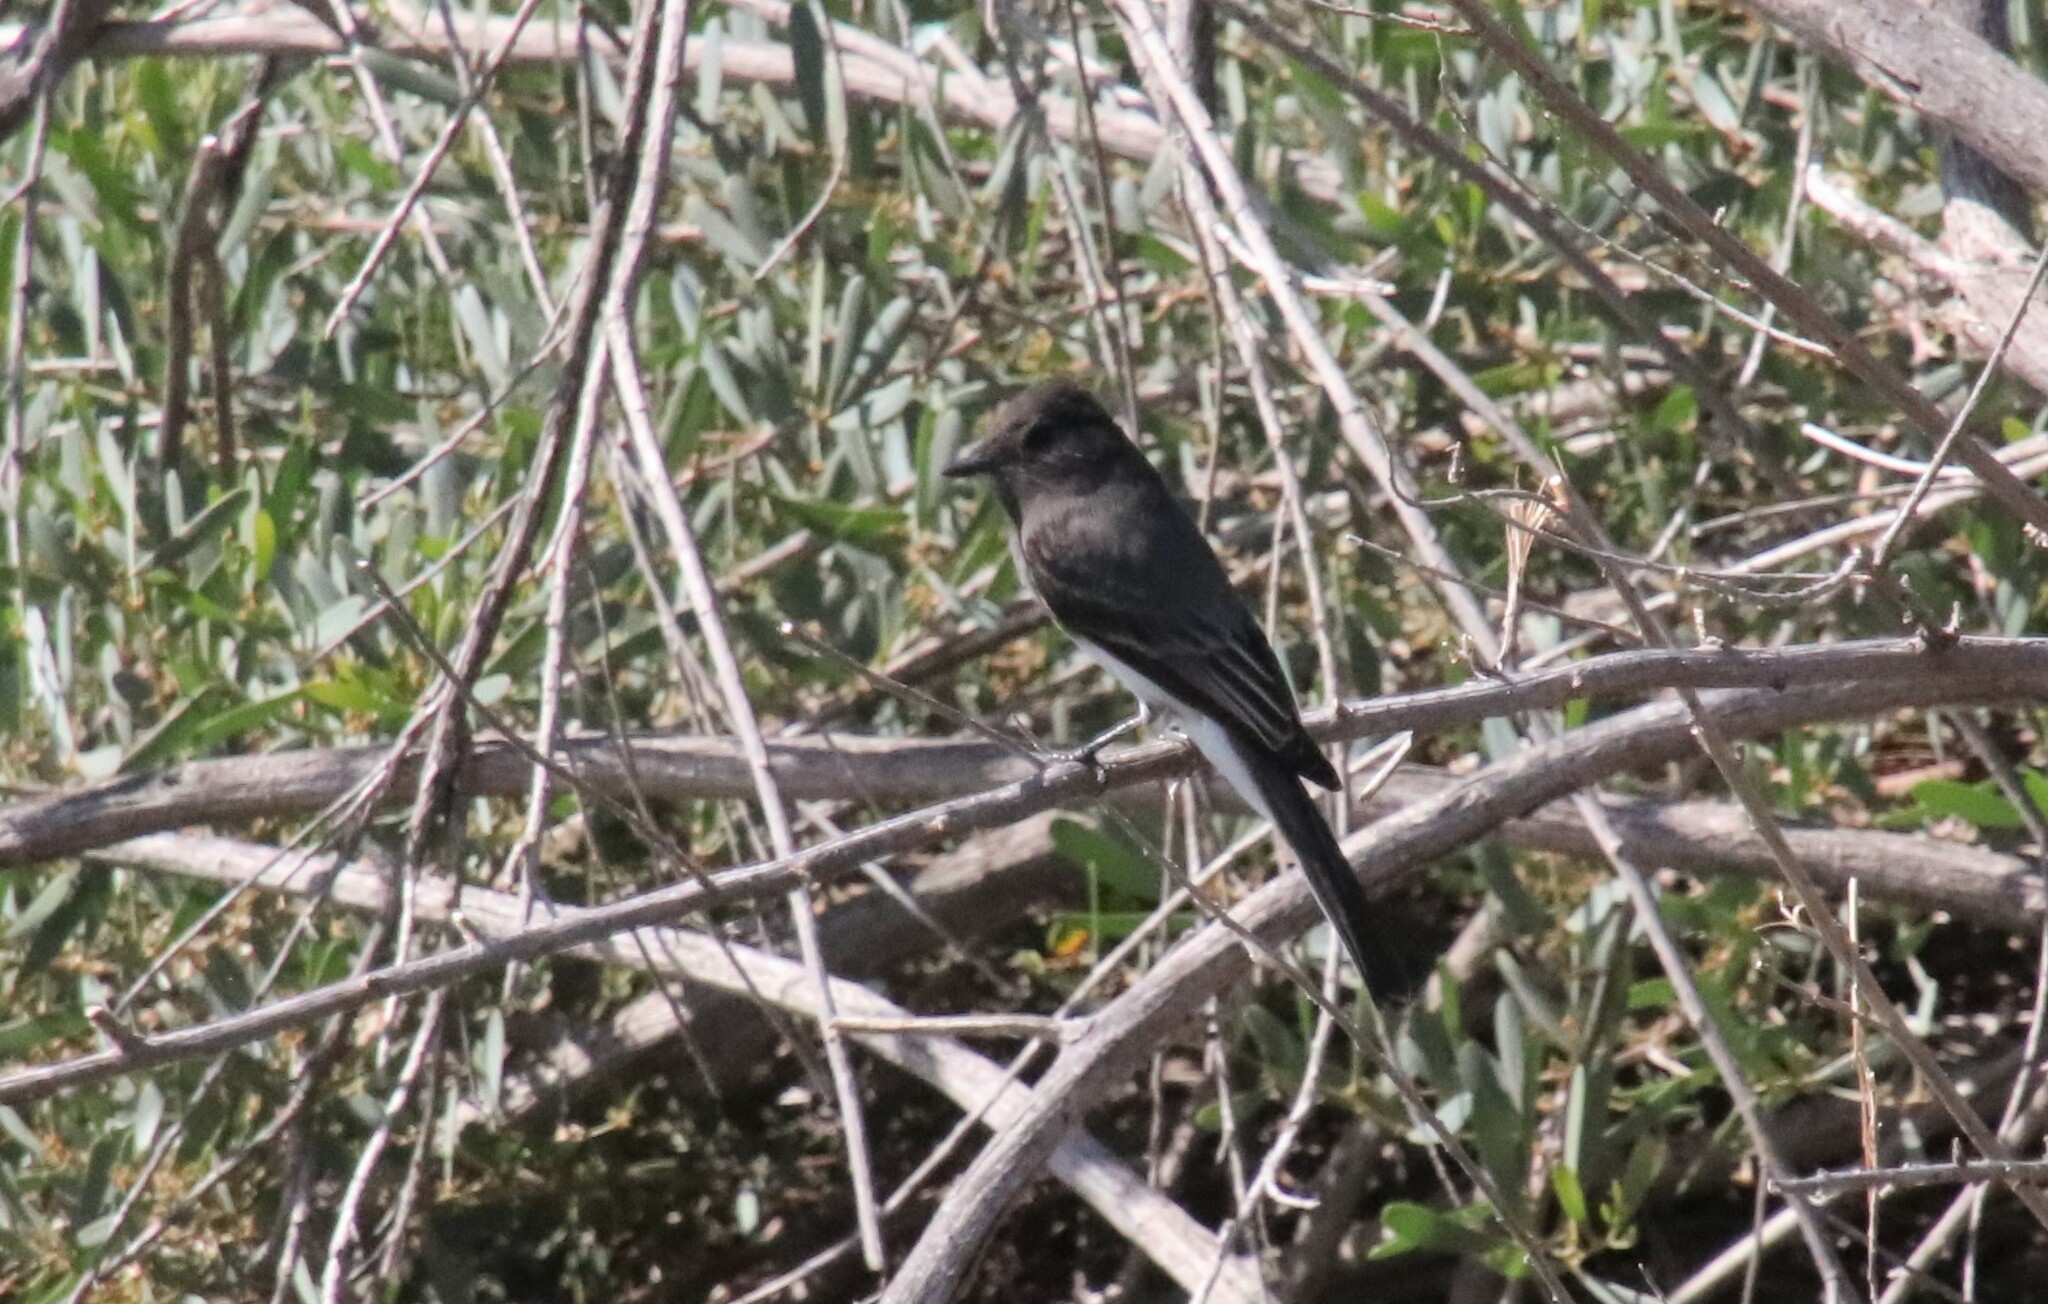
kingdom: Animalia
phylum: Chordata
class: Aves
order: Passeriformes
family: Tyrannidae
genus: Sayornis
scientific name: Sayornis nigricans
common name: Black phoebe
